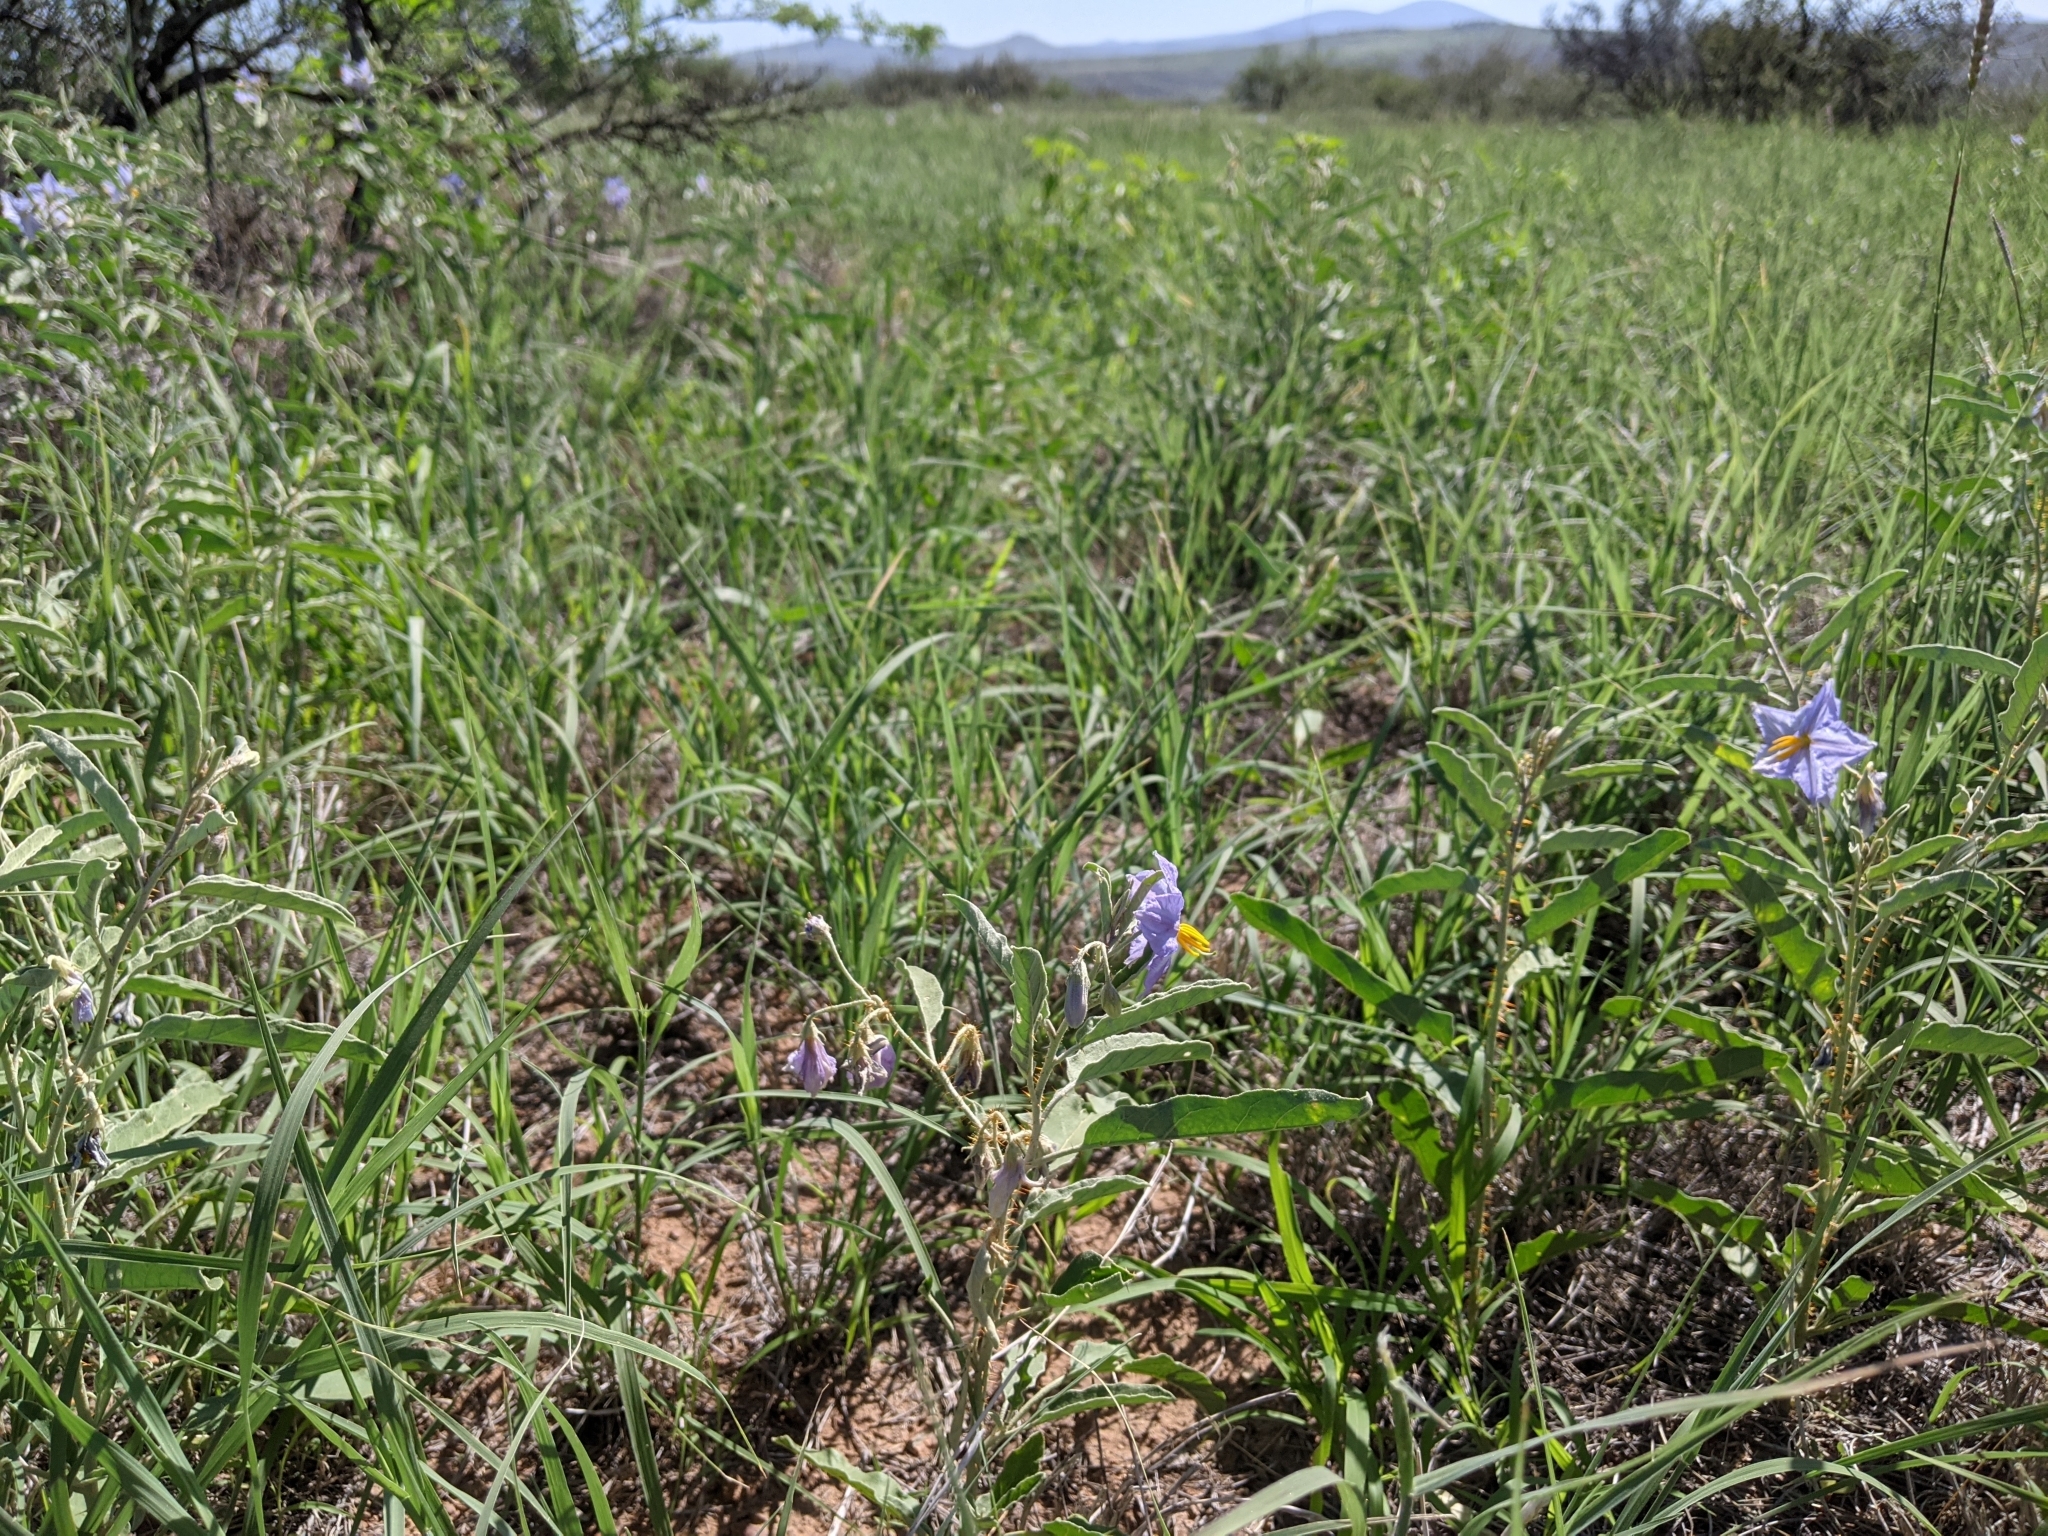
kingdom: Plantae
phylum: Tracheophyta
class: Magnoliopsida
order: Solanales
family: Solanaceae
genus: Solanum
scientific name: Solanum elaeagnifolium
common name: Silverleaf nightshade
